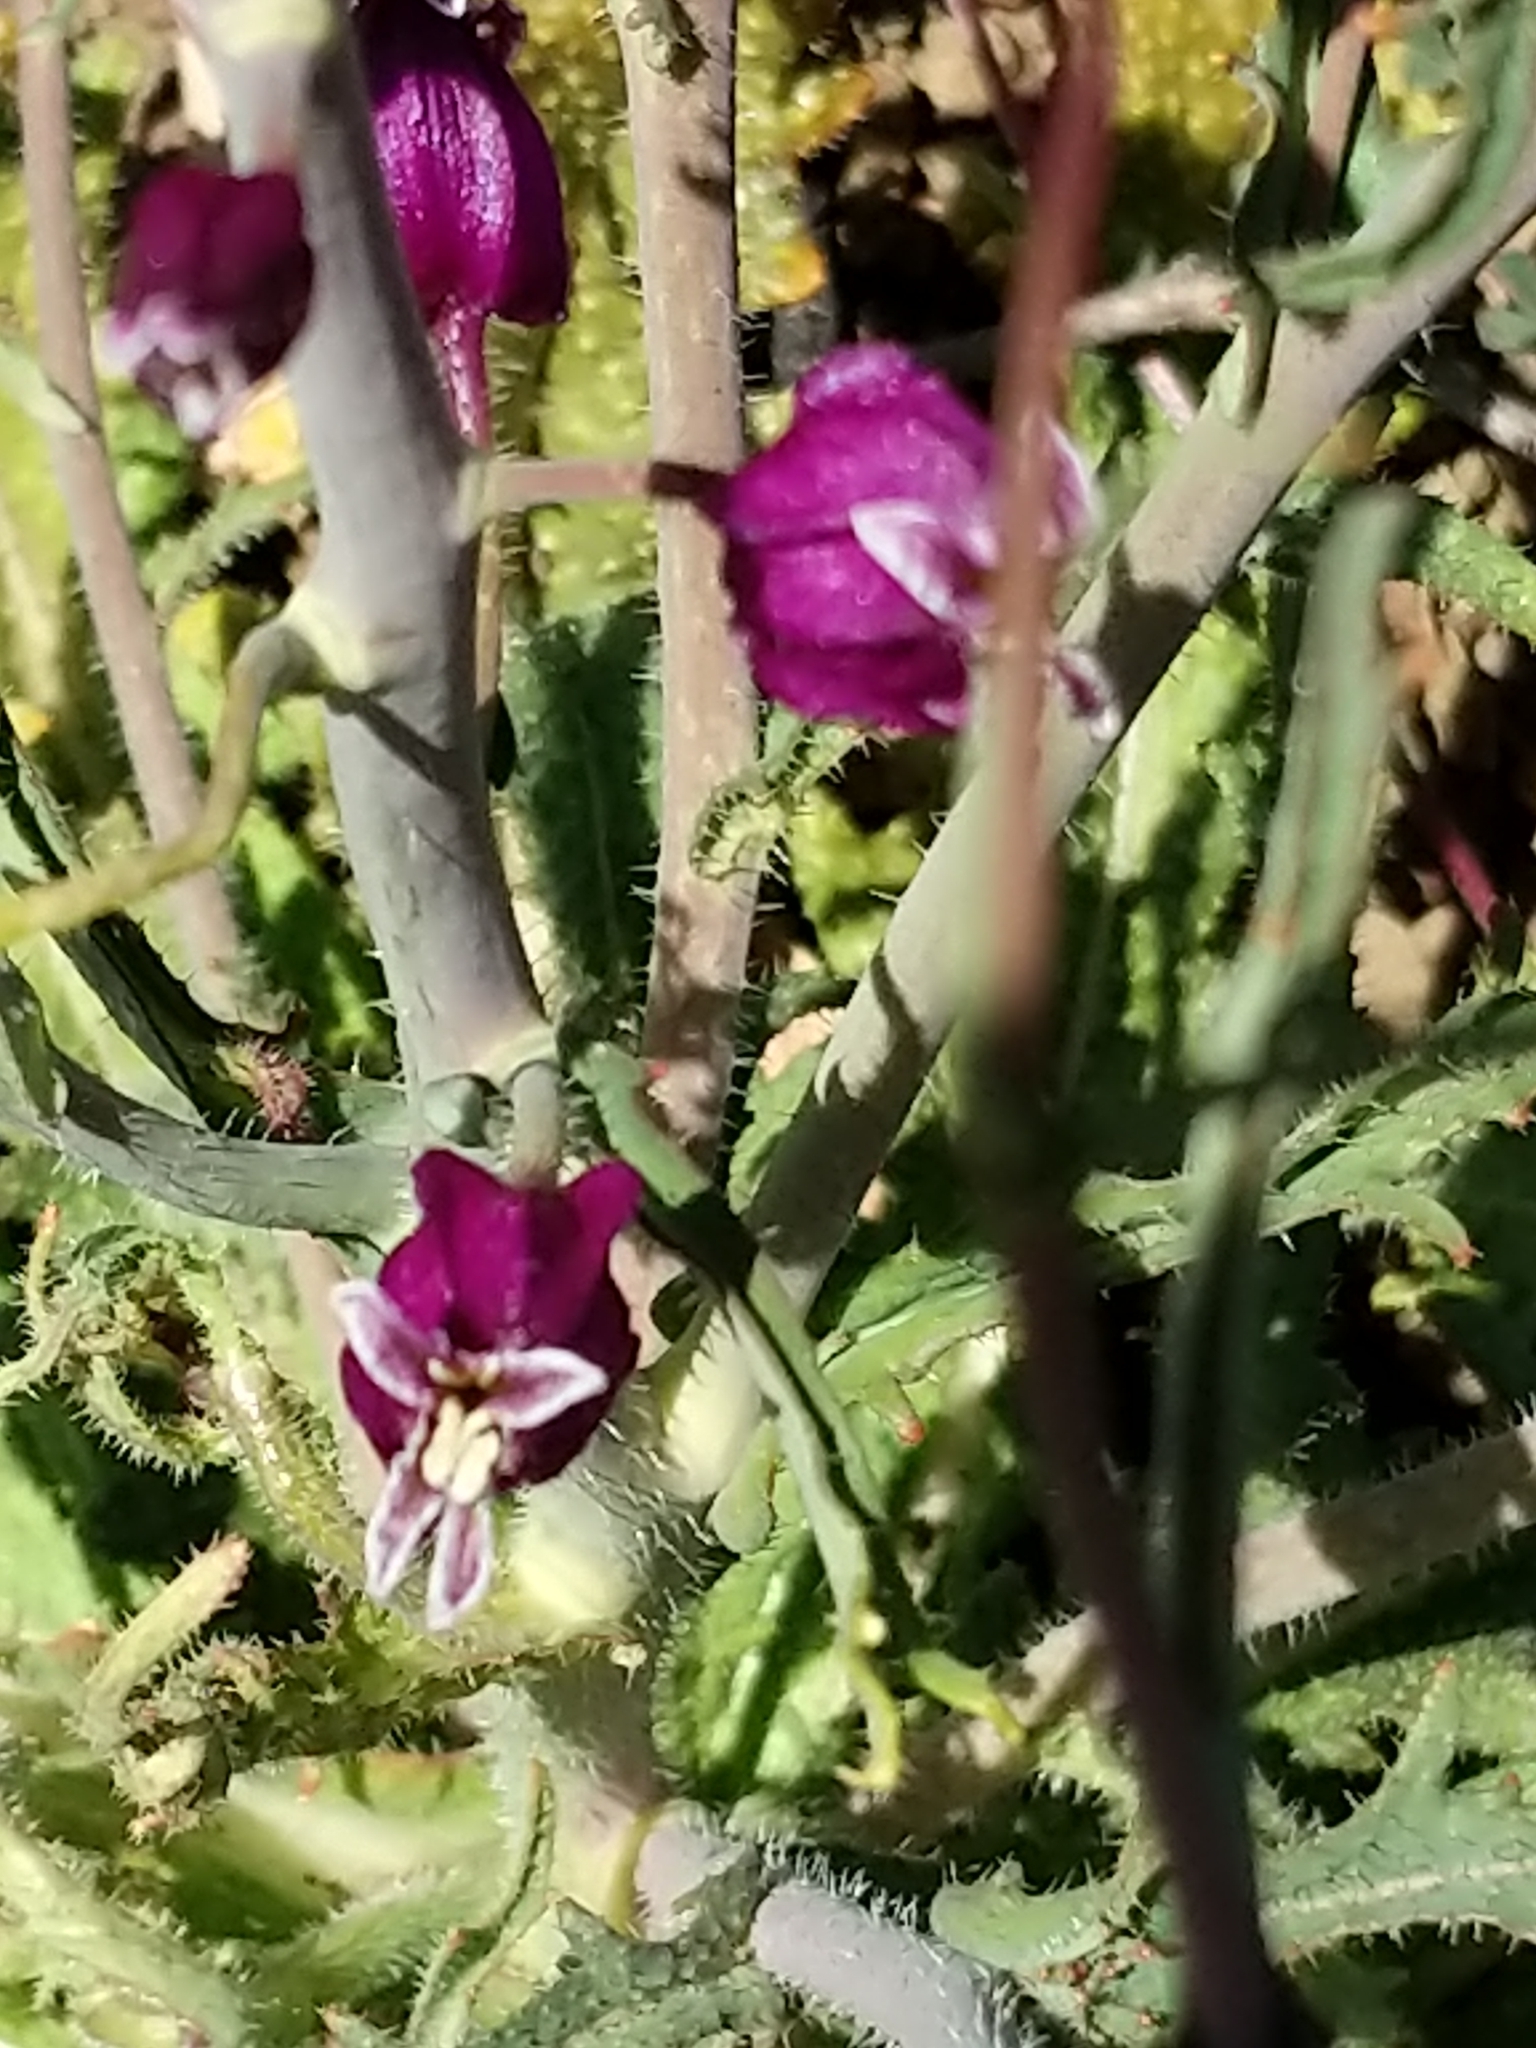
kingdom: Plantae
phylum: Tracheophyta
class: Magnoliopsida
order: Brassicales
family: Brassicaceae
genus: Streptanthus
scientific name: Streptanthus glandulosus
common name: Jewel-flower
